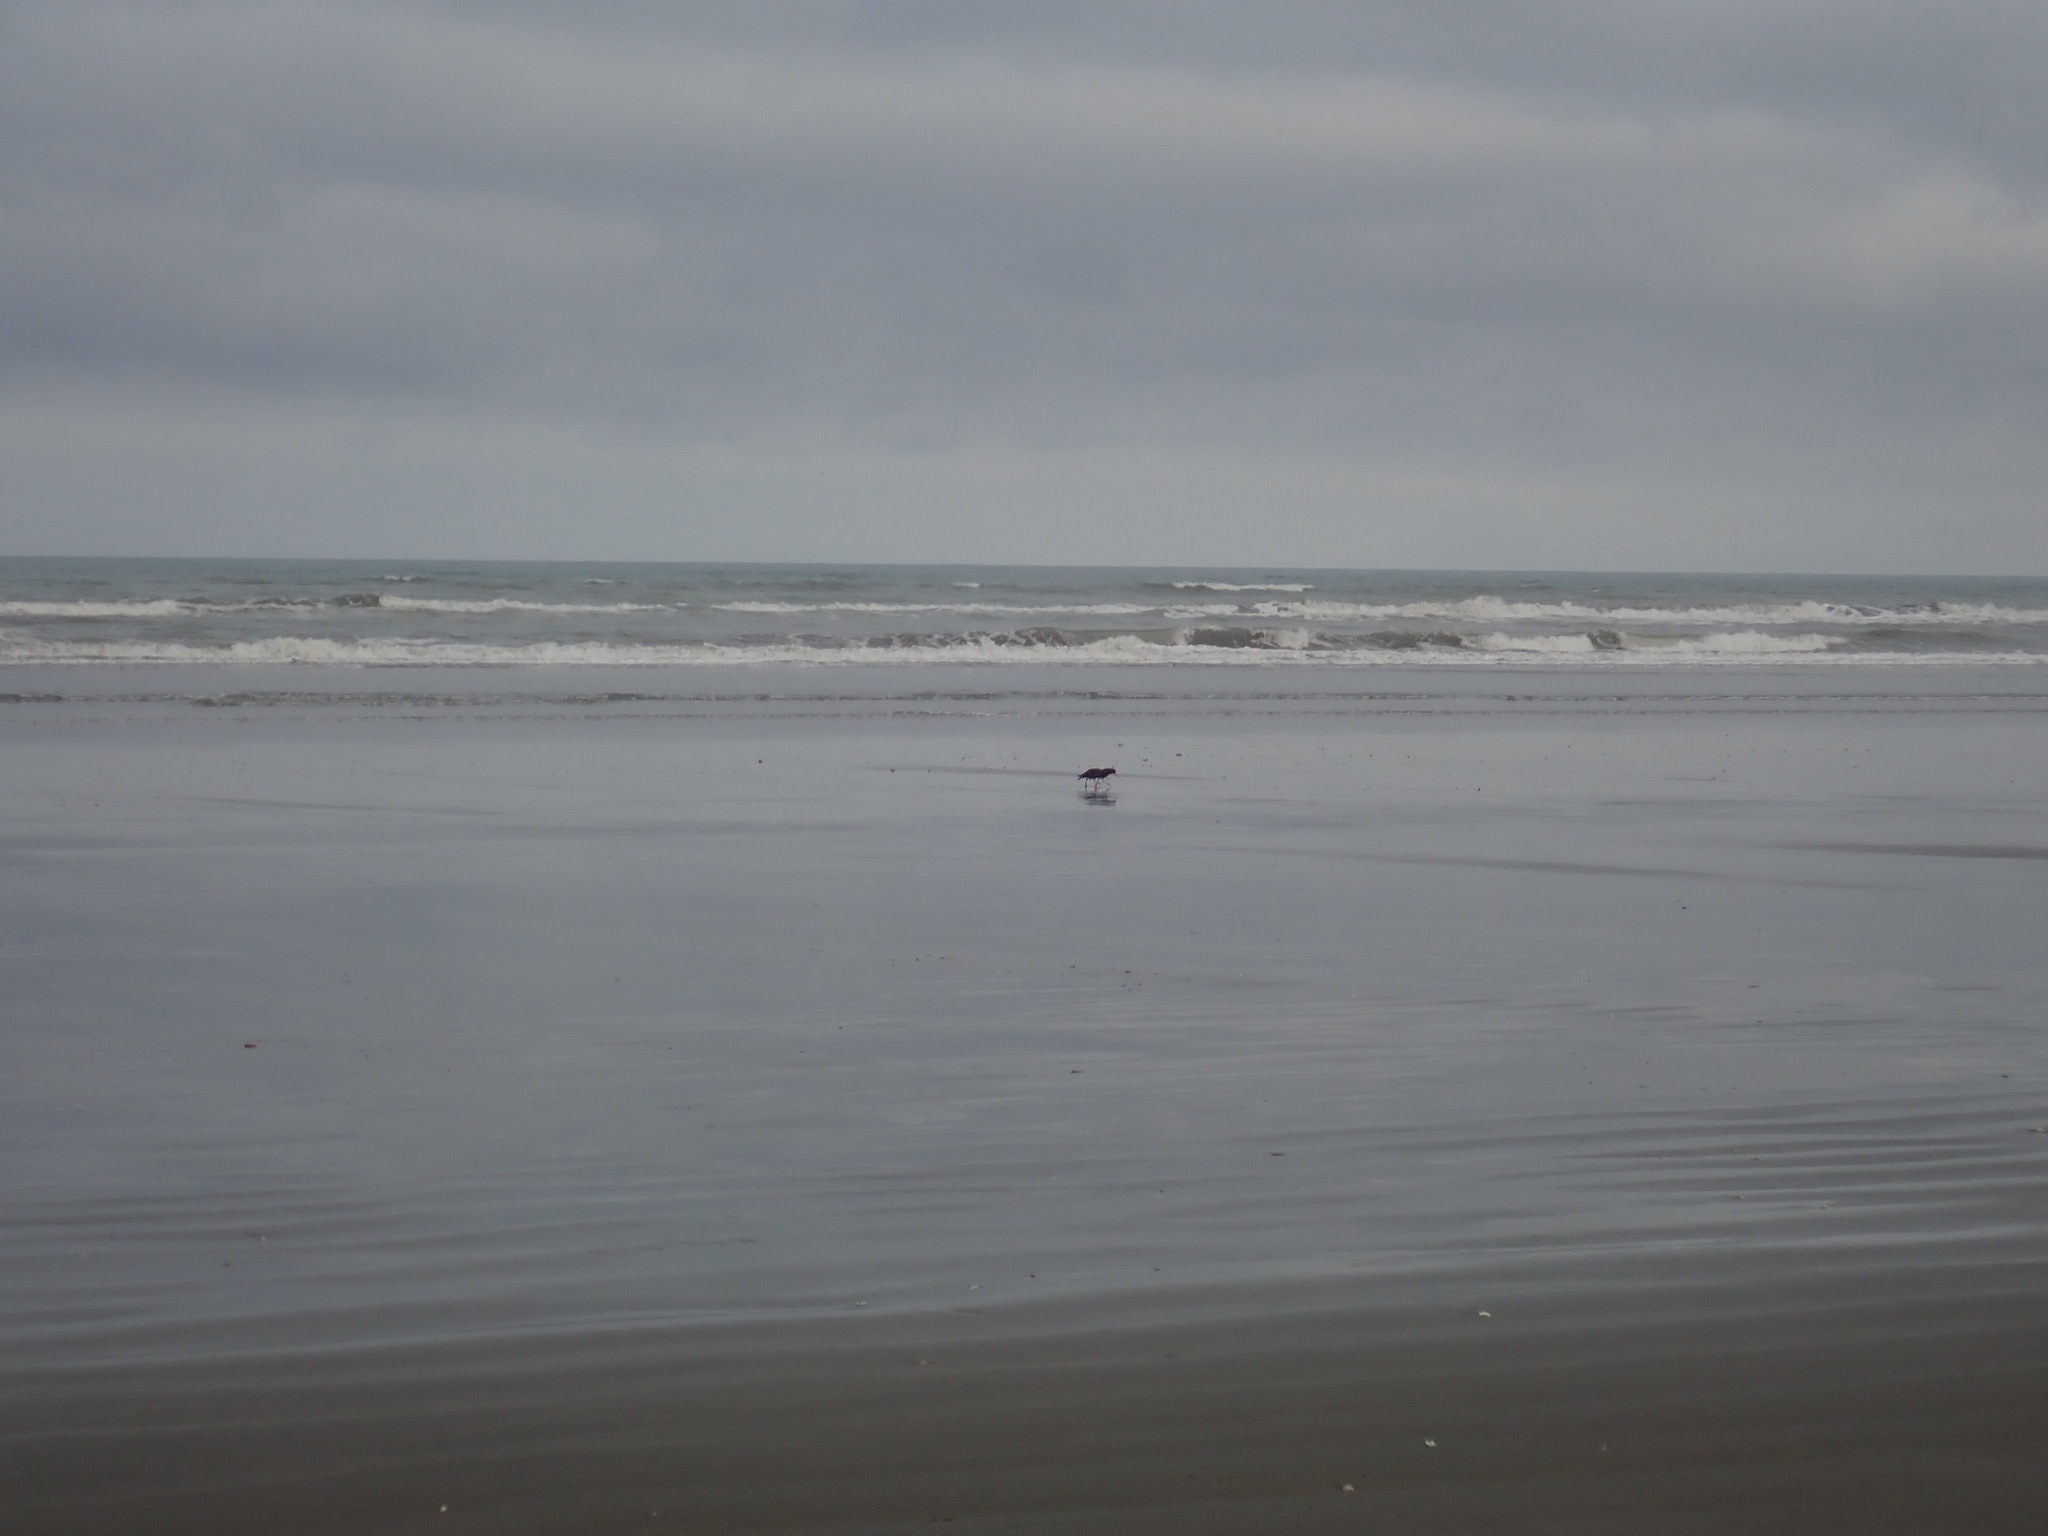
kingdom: Animalia
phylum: Chordata
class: Aves
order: Charadriiformes
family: Haematopodidae
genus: Haematopus
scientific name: Haematopus unicolor
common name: Variable oystercatcher
